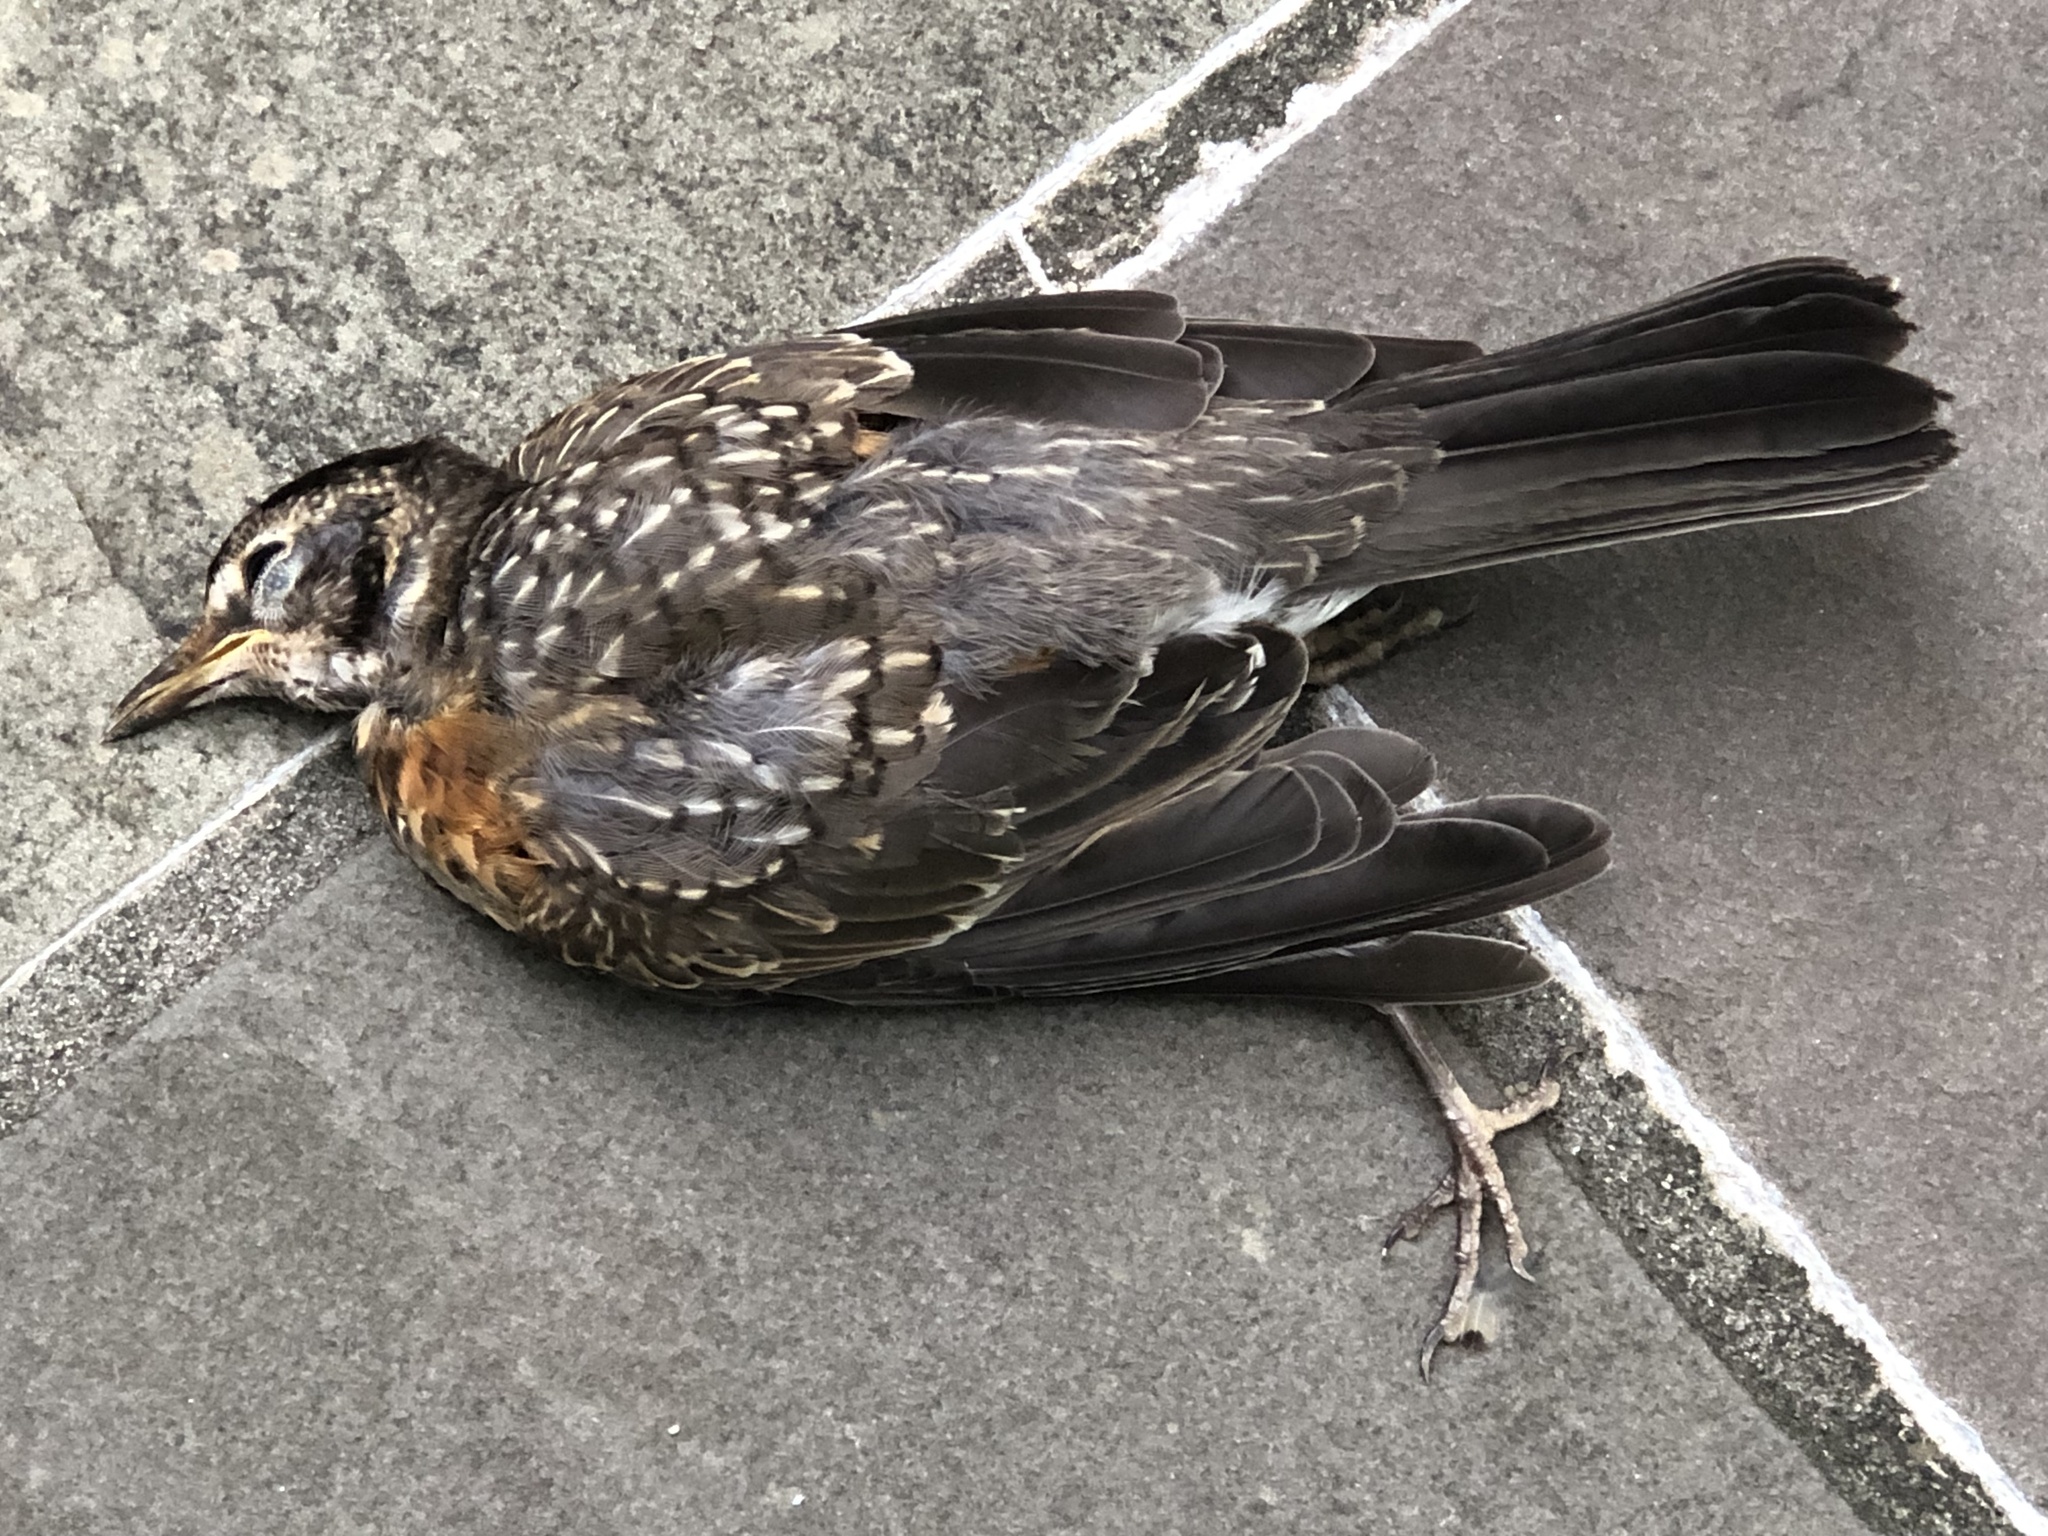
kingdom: Animalia
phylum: Chordata
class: Aves
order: Passeriformes
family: Turdidae
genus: Turdus
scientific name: Turdus migratorius
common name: American robin
